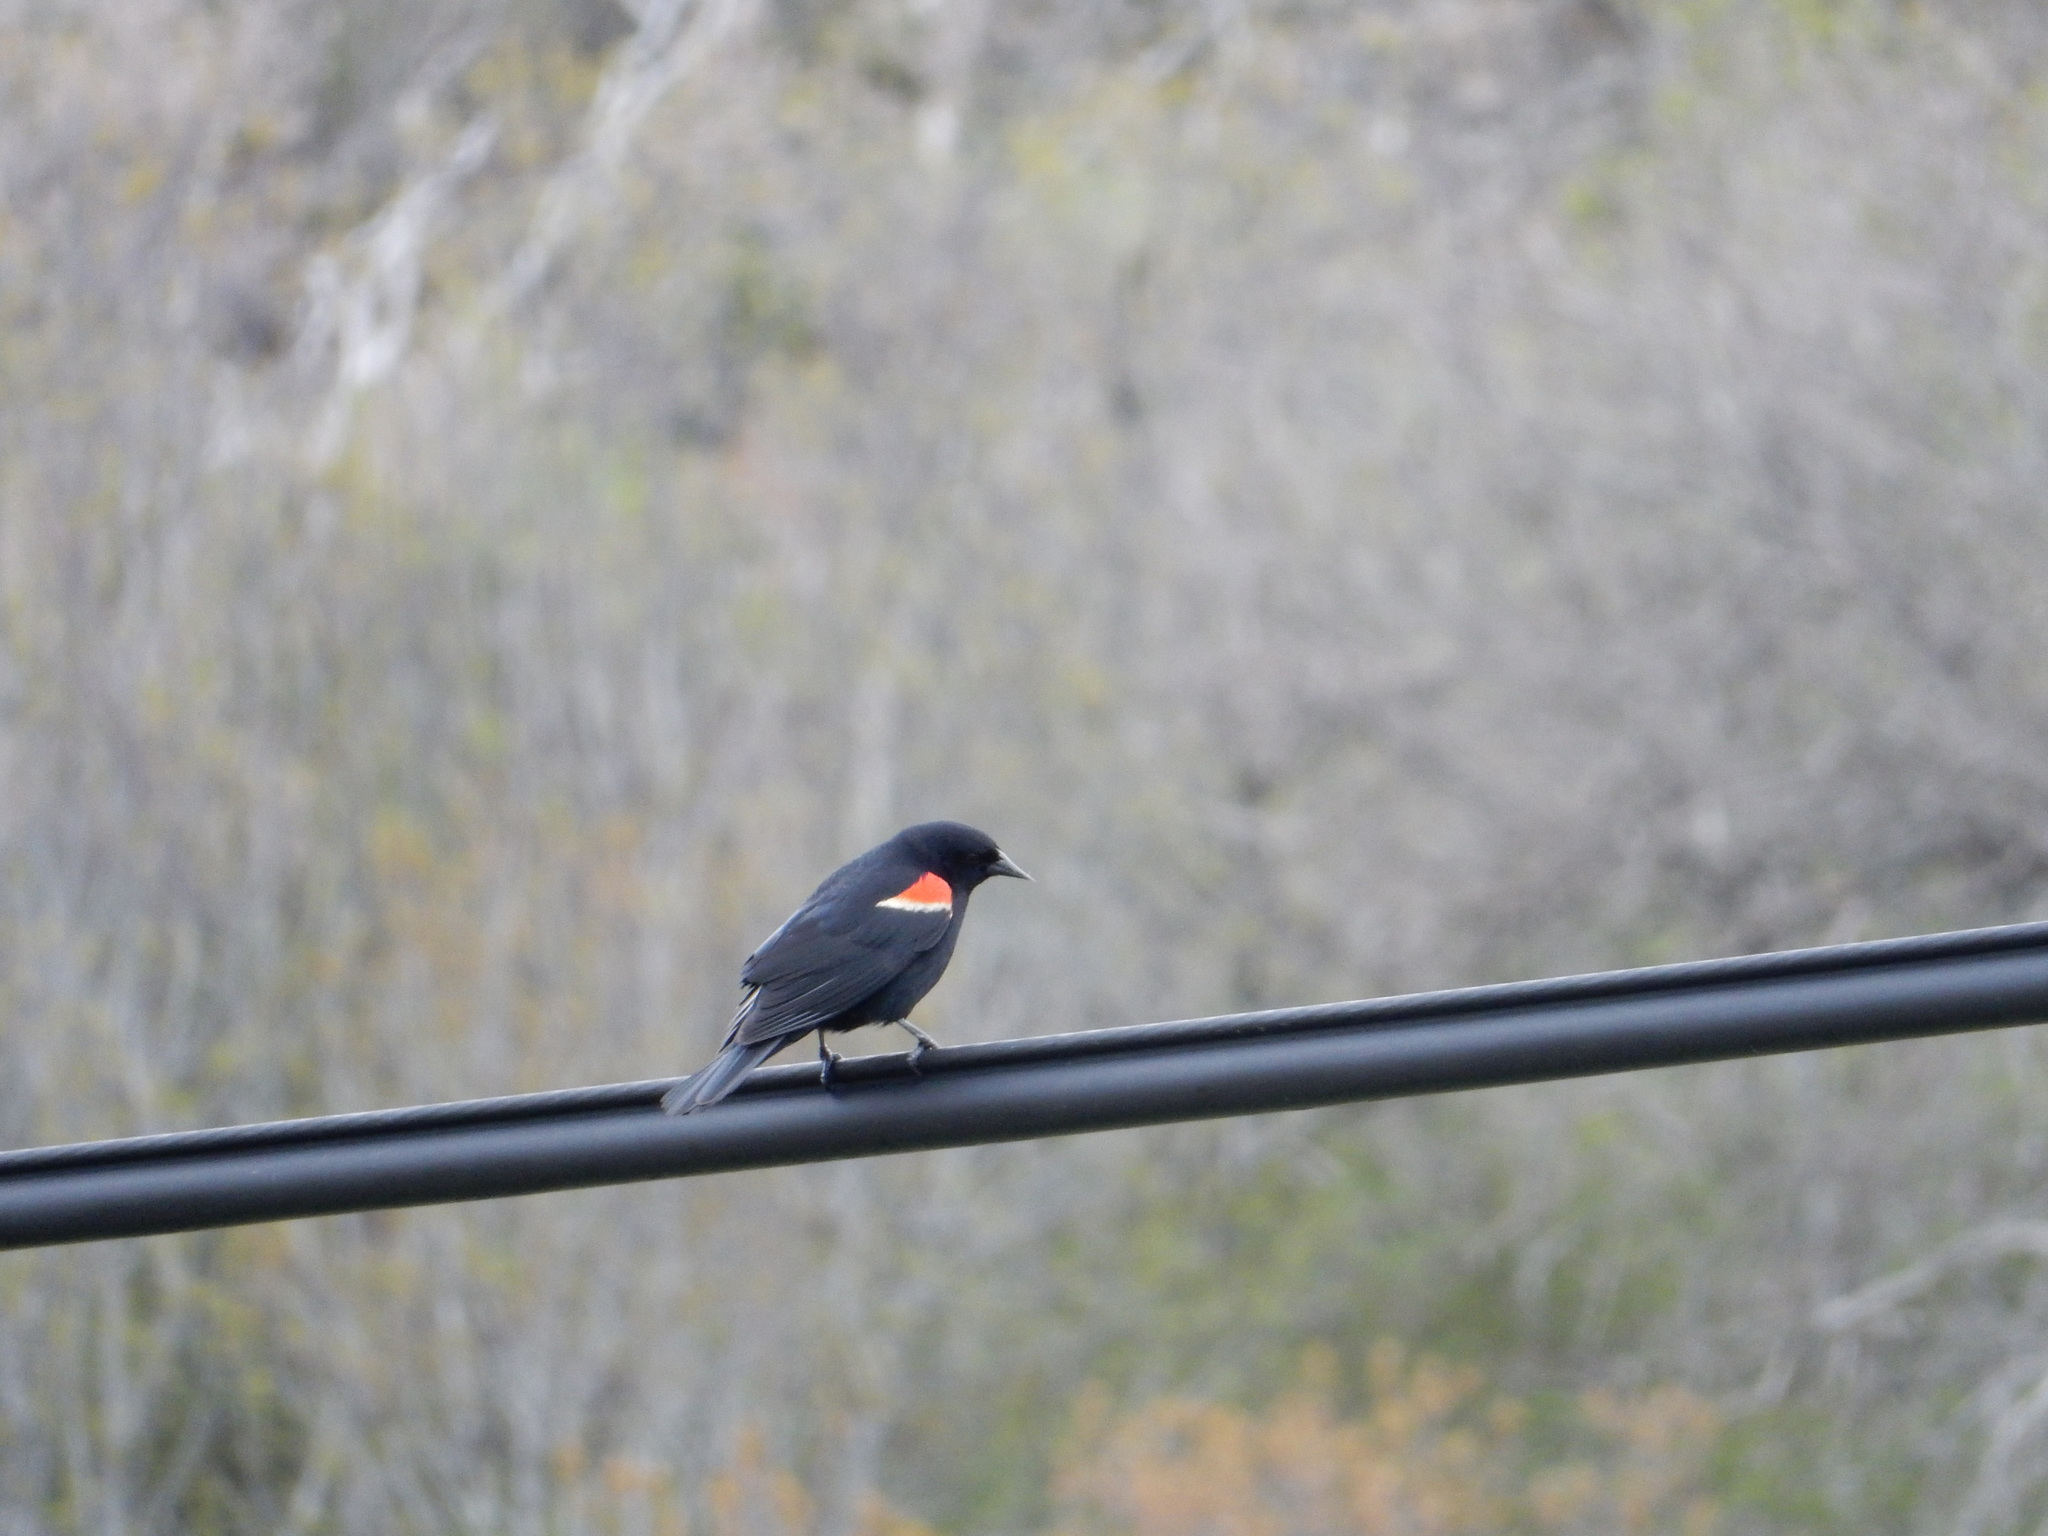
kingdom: Animalia
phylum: Chordata
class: Aves
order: Passeriformes
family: Icteridae
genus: Agelaius
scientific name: Agelaius phoeniceus
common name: Red-winged blackbird
